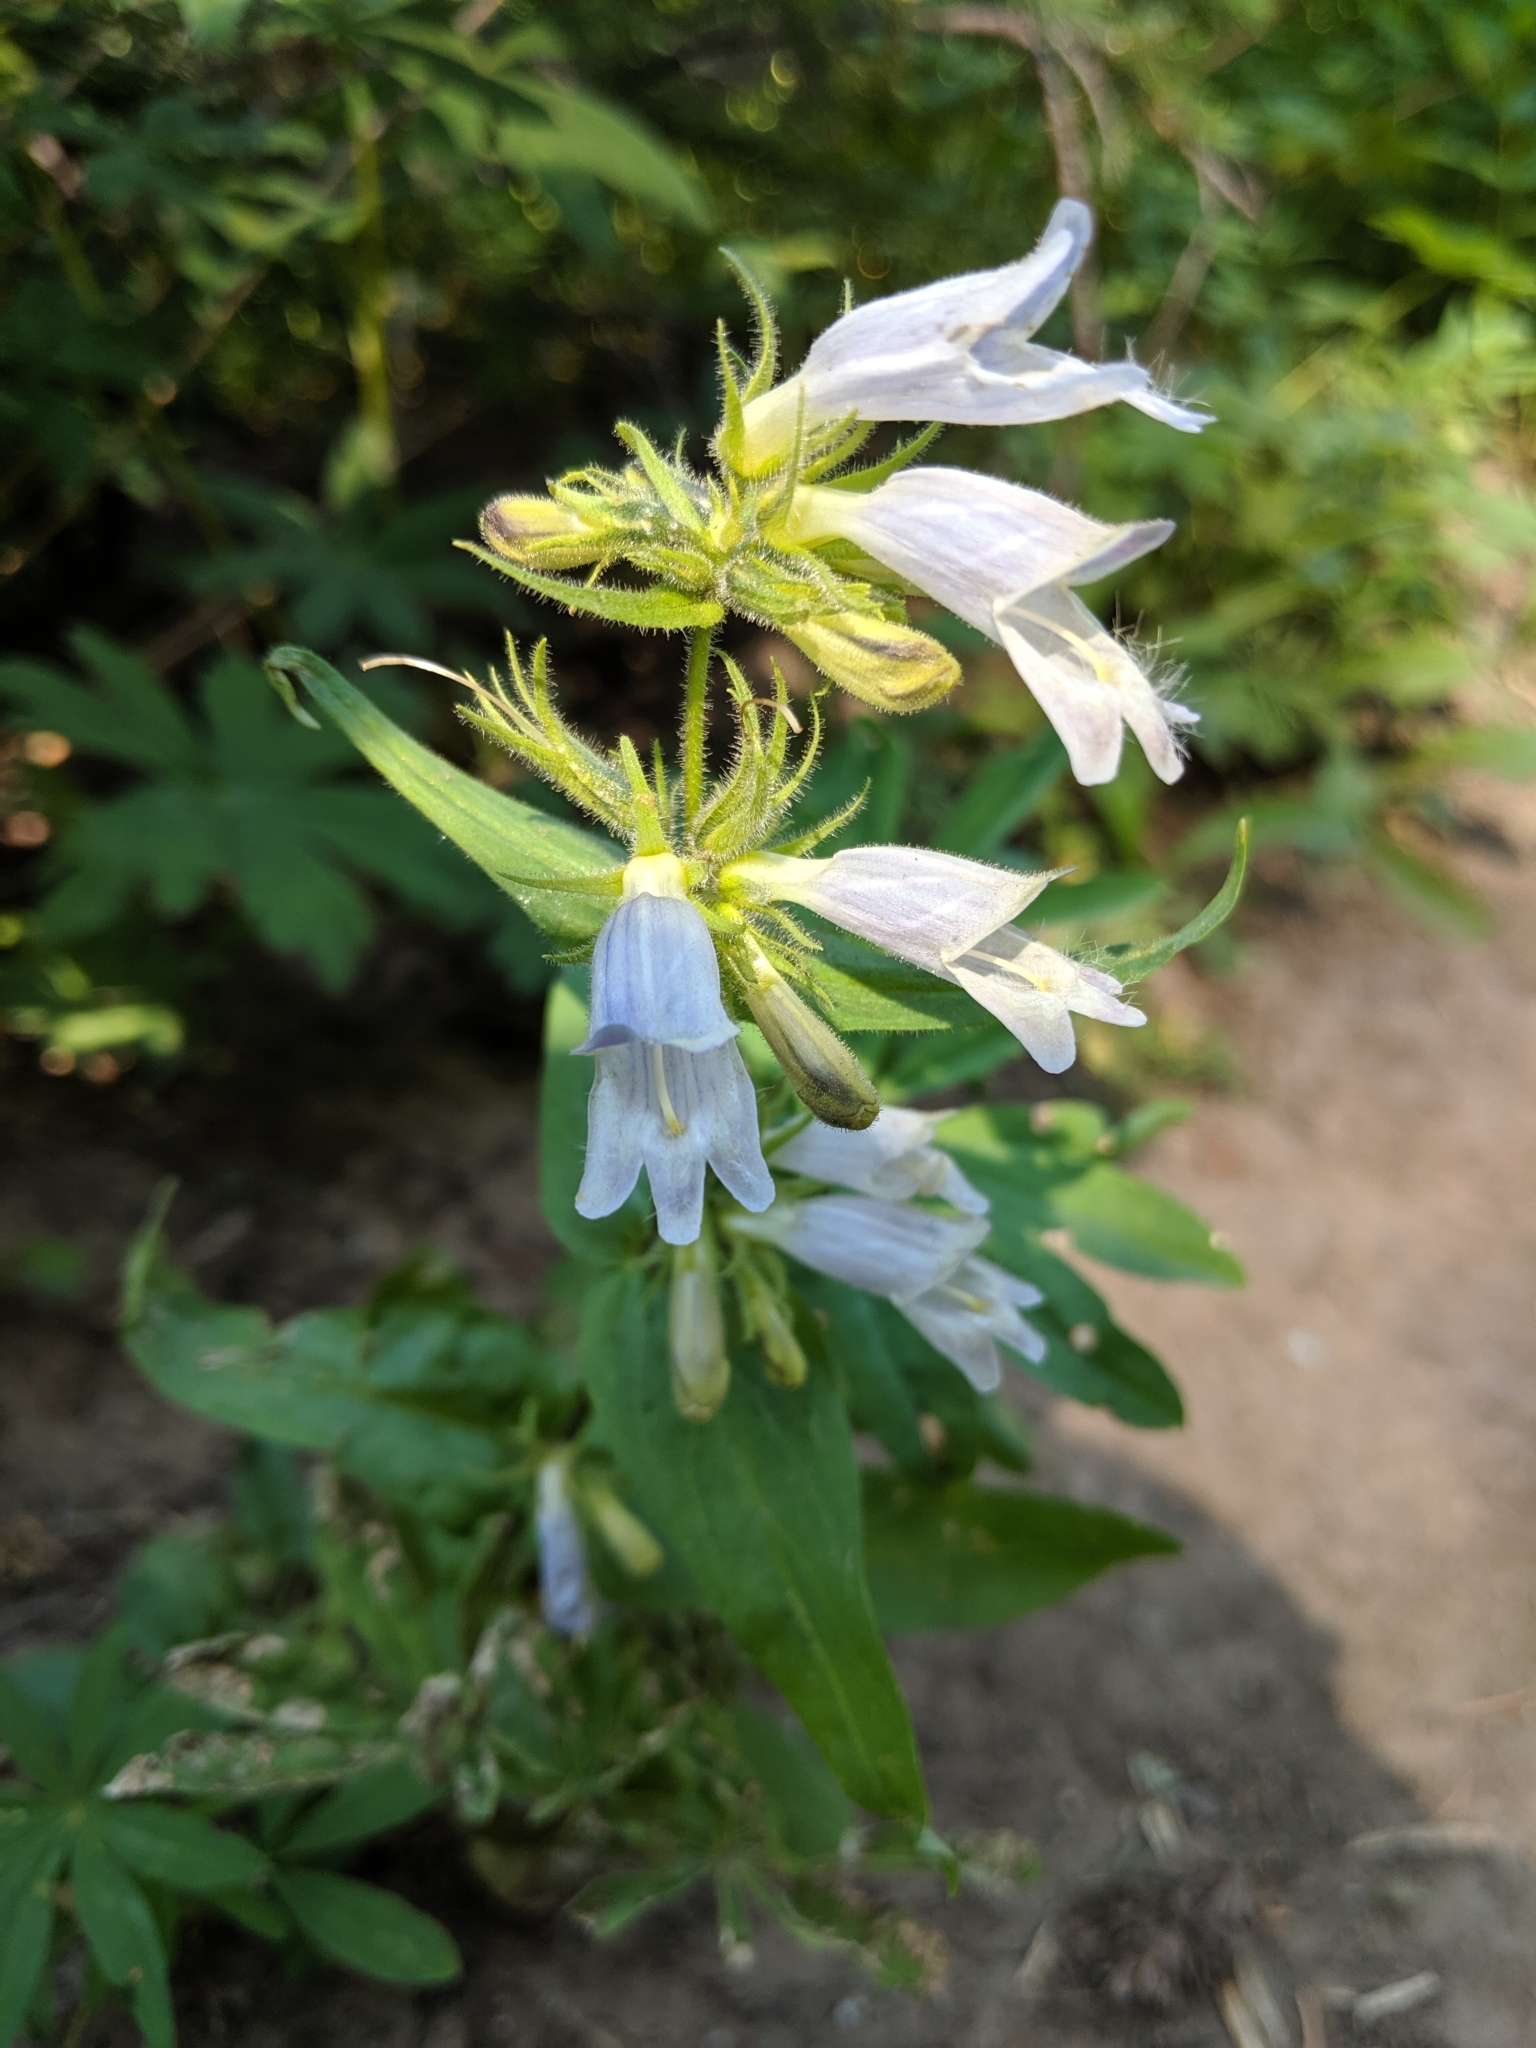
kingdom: Plantae
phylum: Tracheophyta
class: Magnoliopsida
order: Lamiales
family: Plantaginaceae
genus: Penstemon
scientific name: Penstemon whippleanus
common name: Whipple's penstemon
